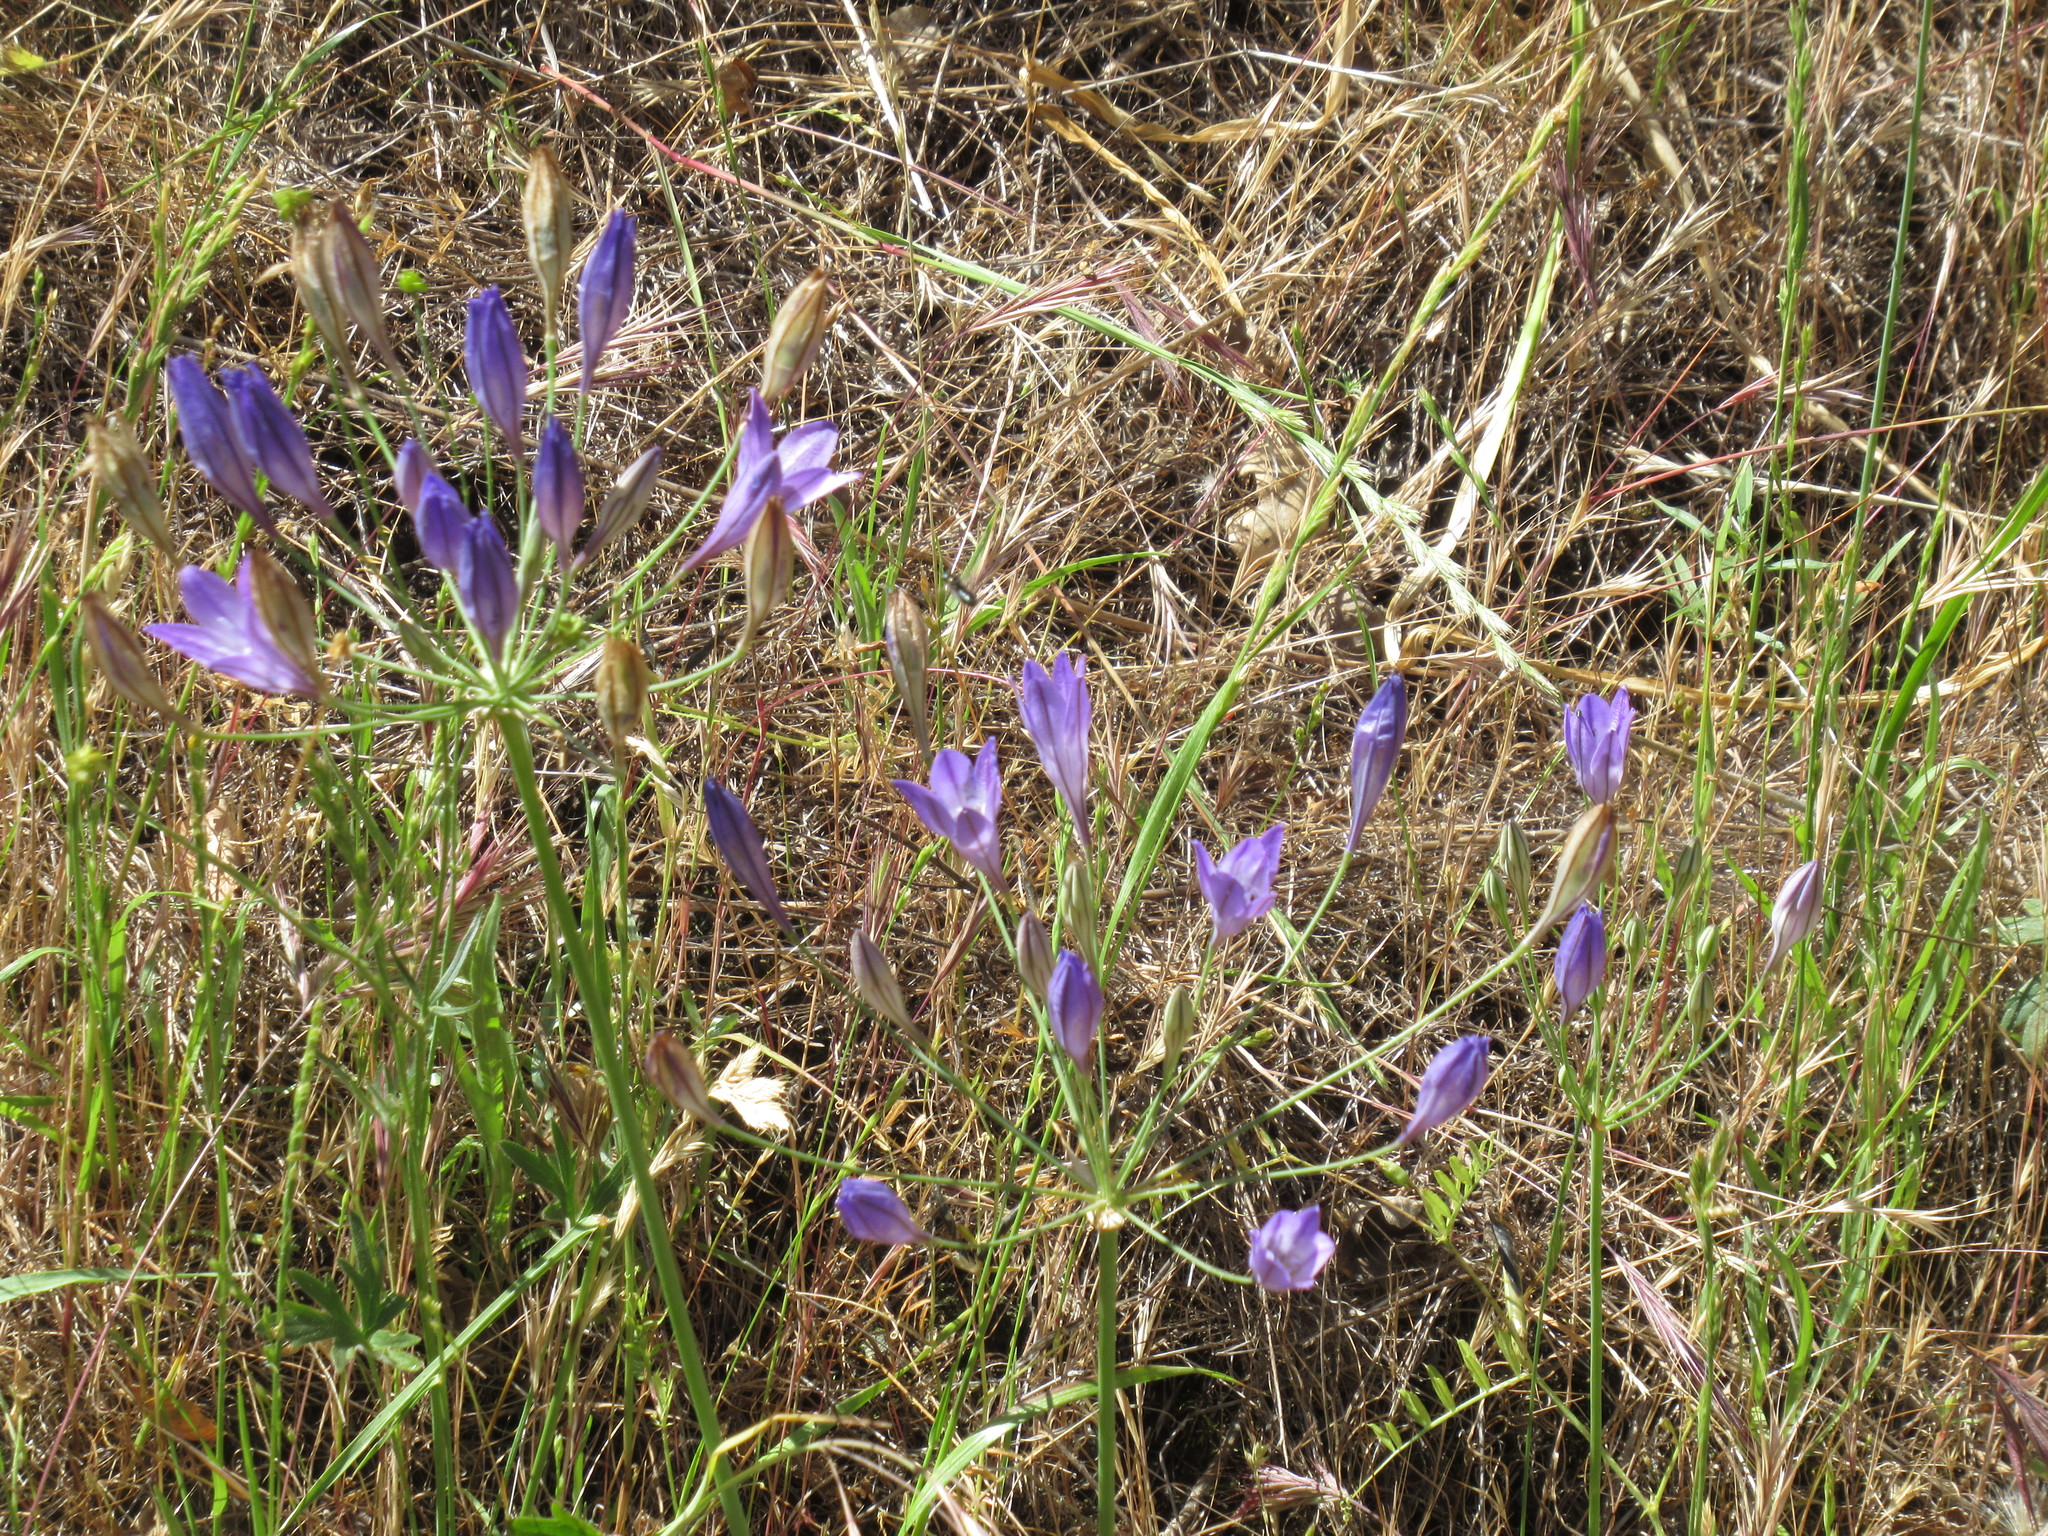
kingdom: Plantae
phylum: Tracheophyta
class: Liliopsida
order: Asparagales
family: Asparagaceae
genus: Triteleia
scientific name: Triteleia laxa
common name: Triplet-lily
